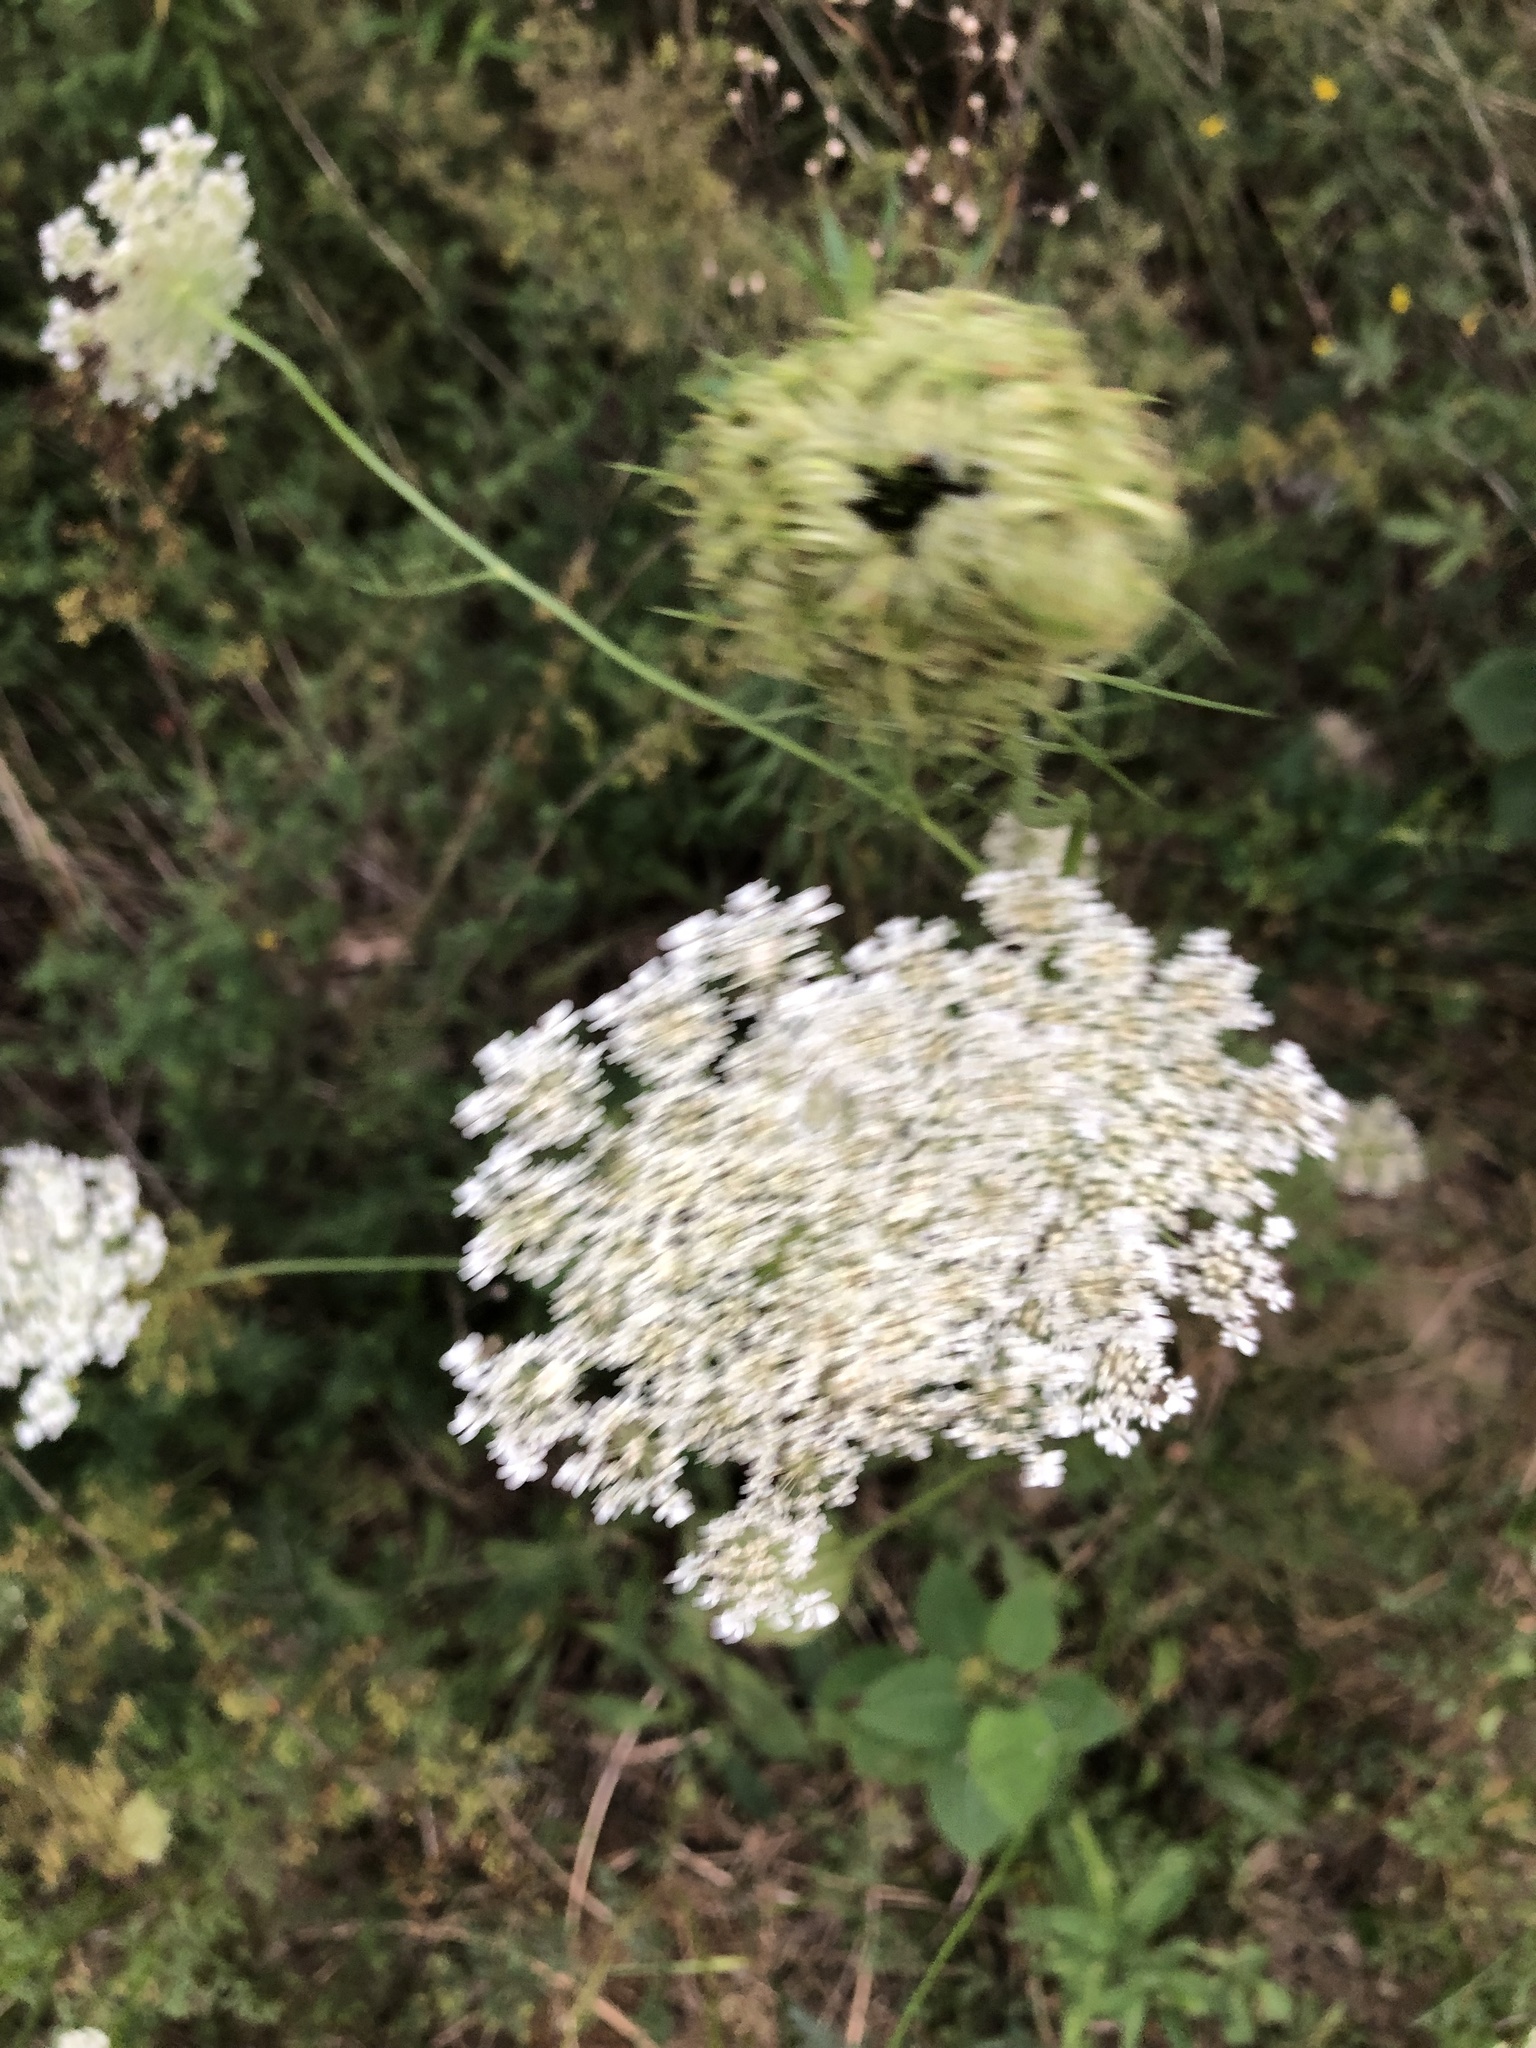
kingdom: Plantae
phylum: Tracheophyta
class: Magnoliopsida
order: Apiales
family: Apiaceae
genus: Daucus
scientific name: Daucus carota
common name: Wild carrot
